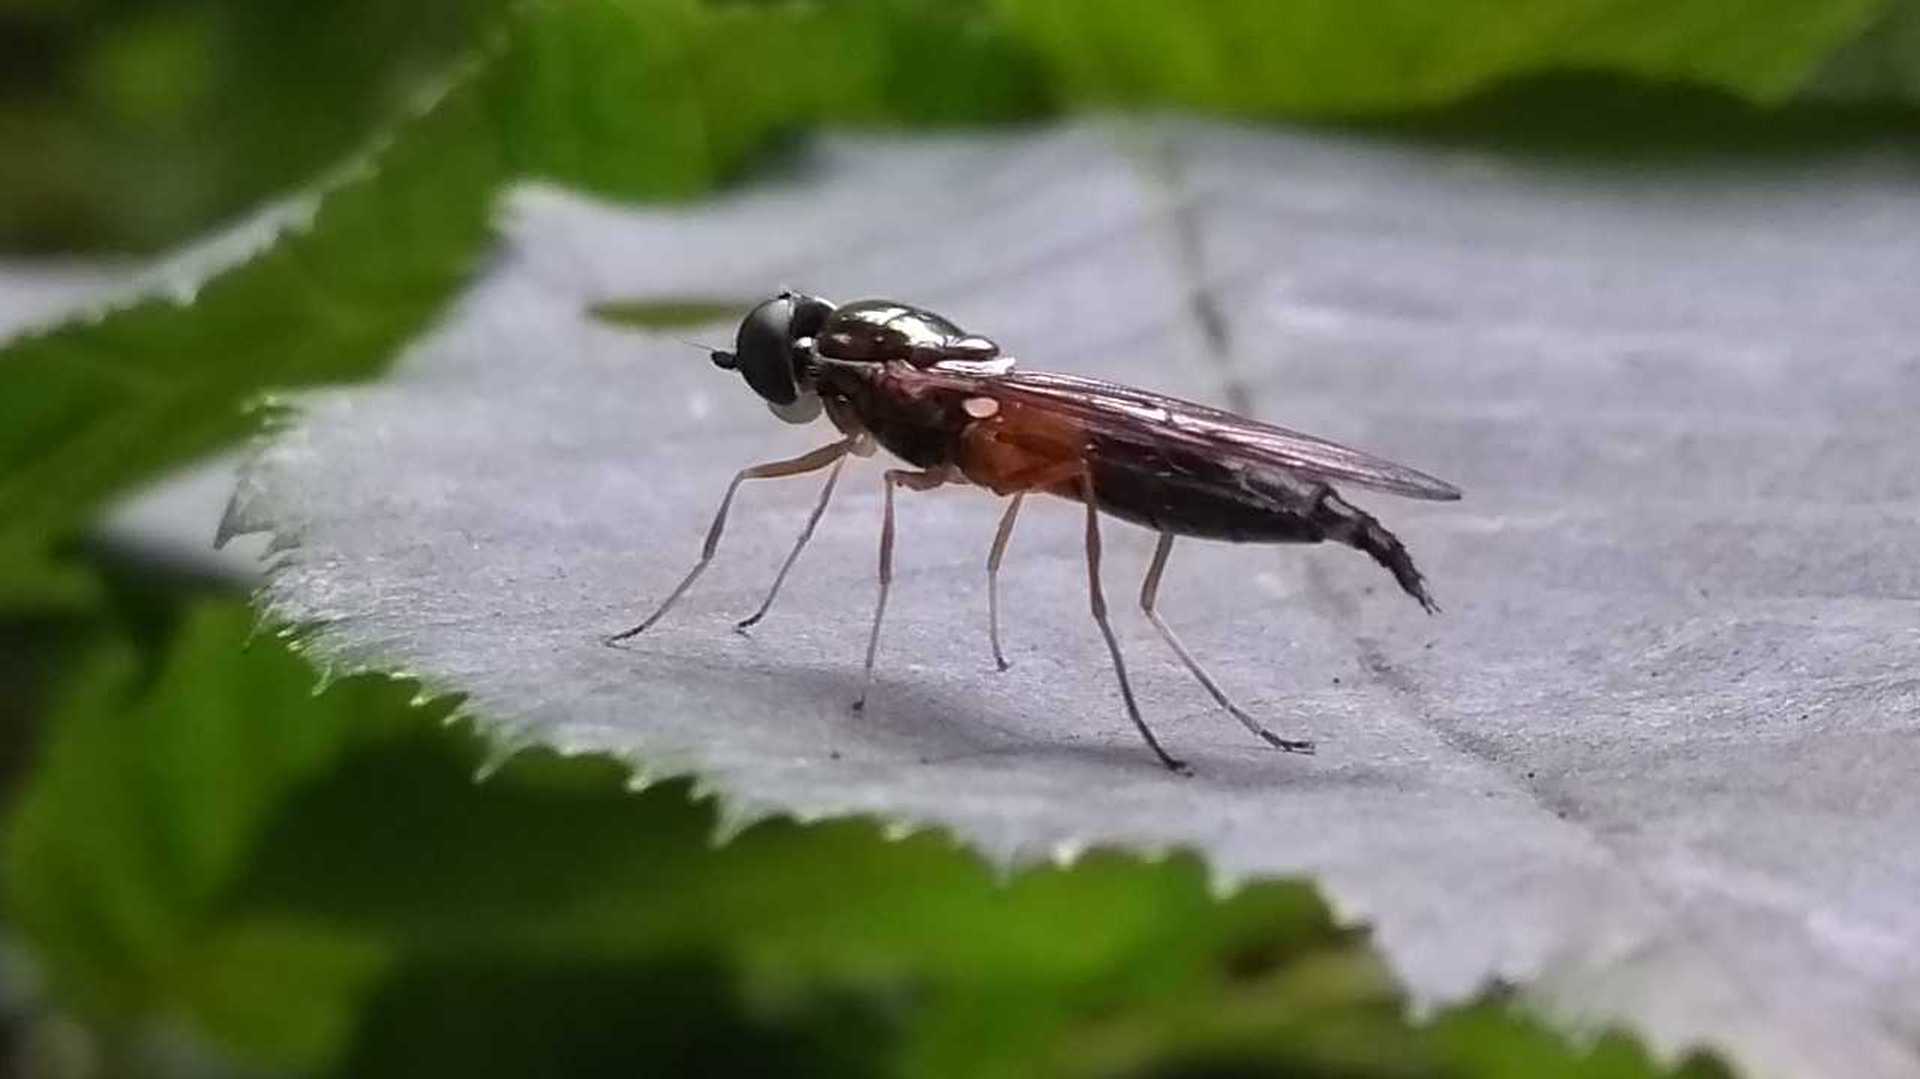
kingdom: Animalia
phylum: Arthropoda
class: Insecta
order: Diptera
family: Stratiomyidae
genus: Sargus
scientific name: Sargus bipunctatus
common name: Twin-spot centurion
